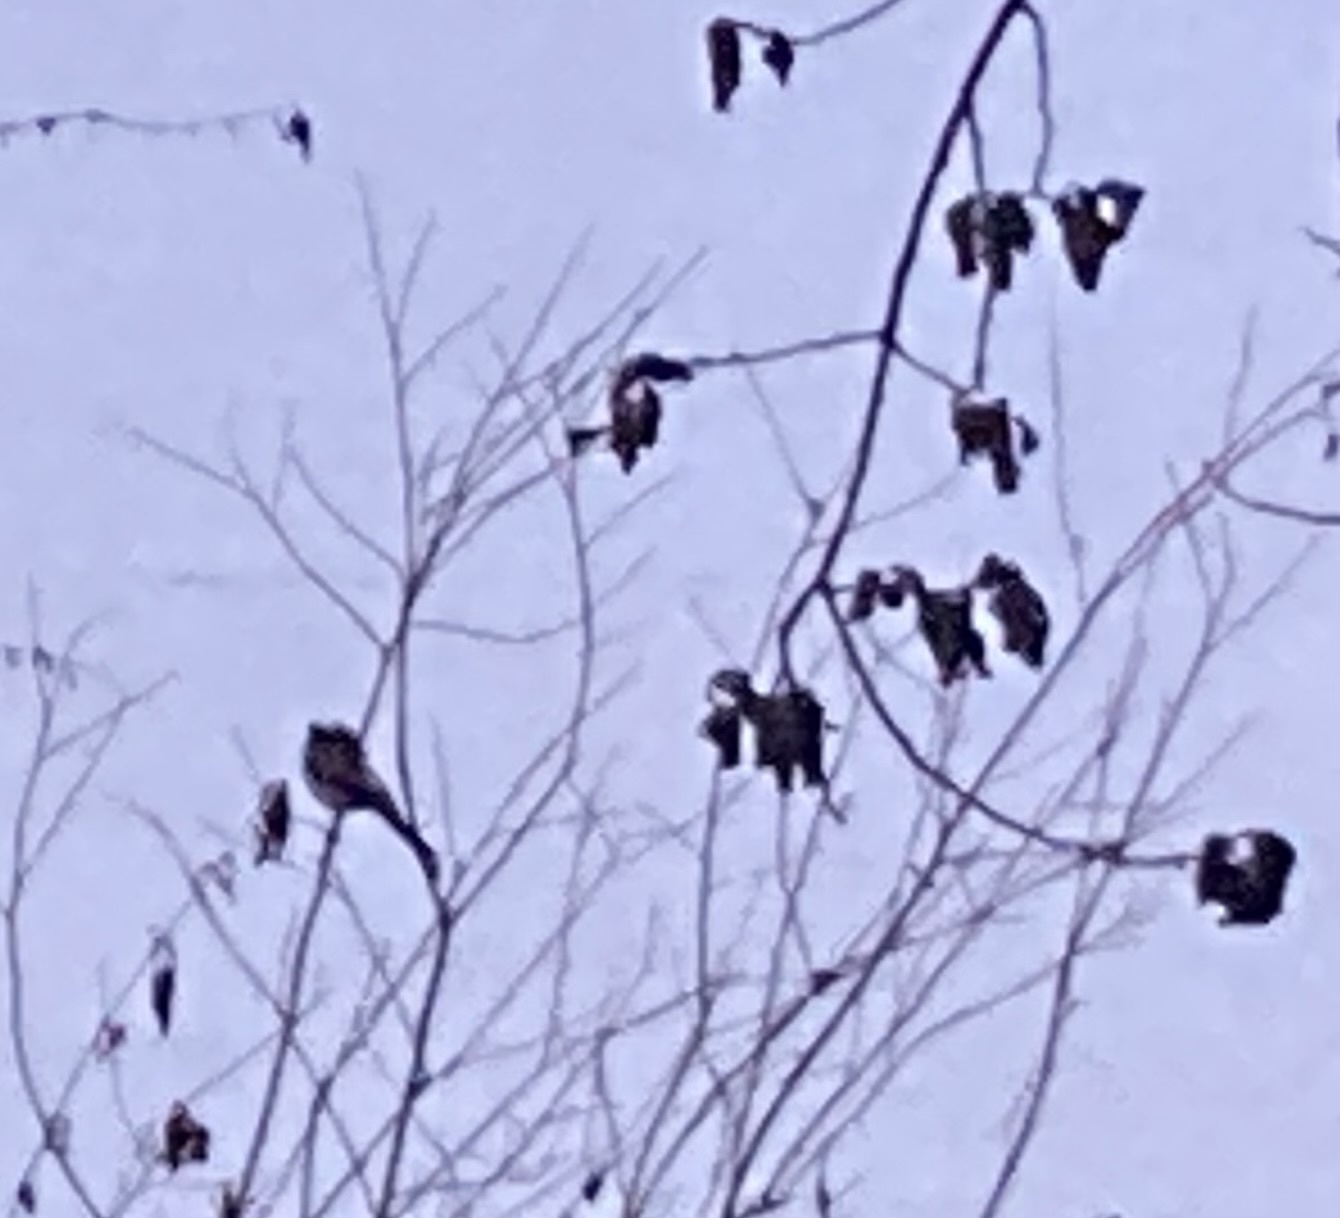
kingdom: Animalia
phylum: Chordata
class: Aves
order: Passeriformes
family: Aegithalidae
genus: Aegithalos
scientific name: Aegithalos caudatus
